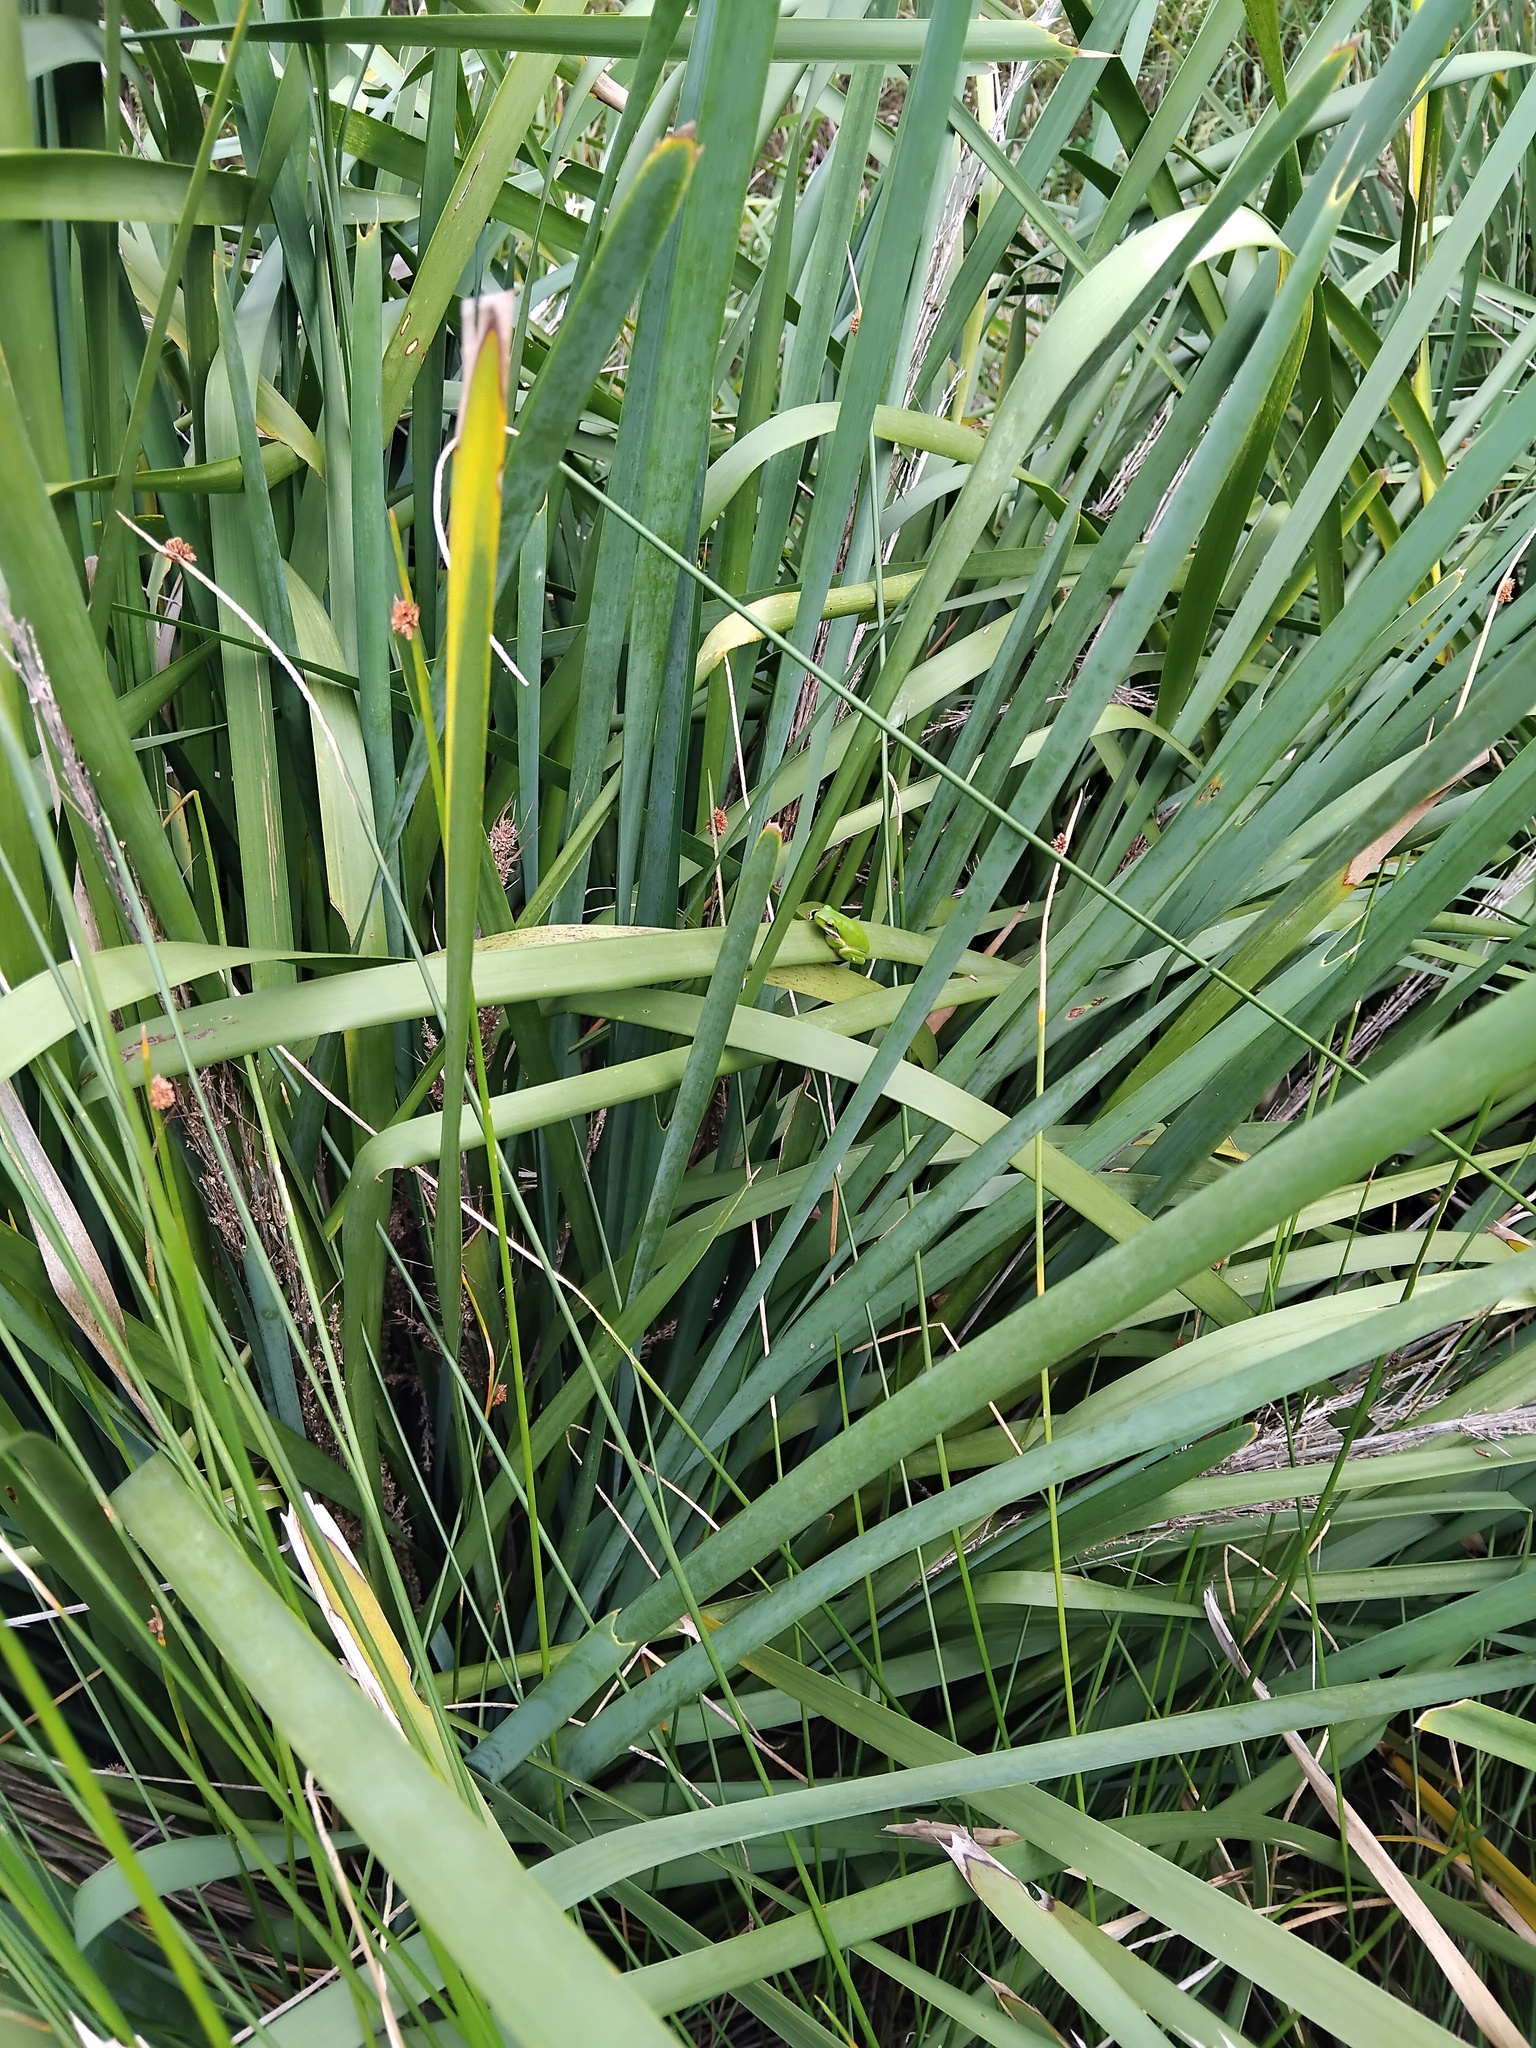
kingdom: Animalia
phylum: Chordata
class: Amphibia
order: Anura
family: Pelodryadidae
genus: Litoria
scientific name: Litoria fallax
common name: Eastern dwarf treefrog
